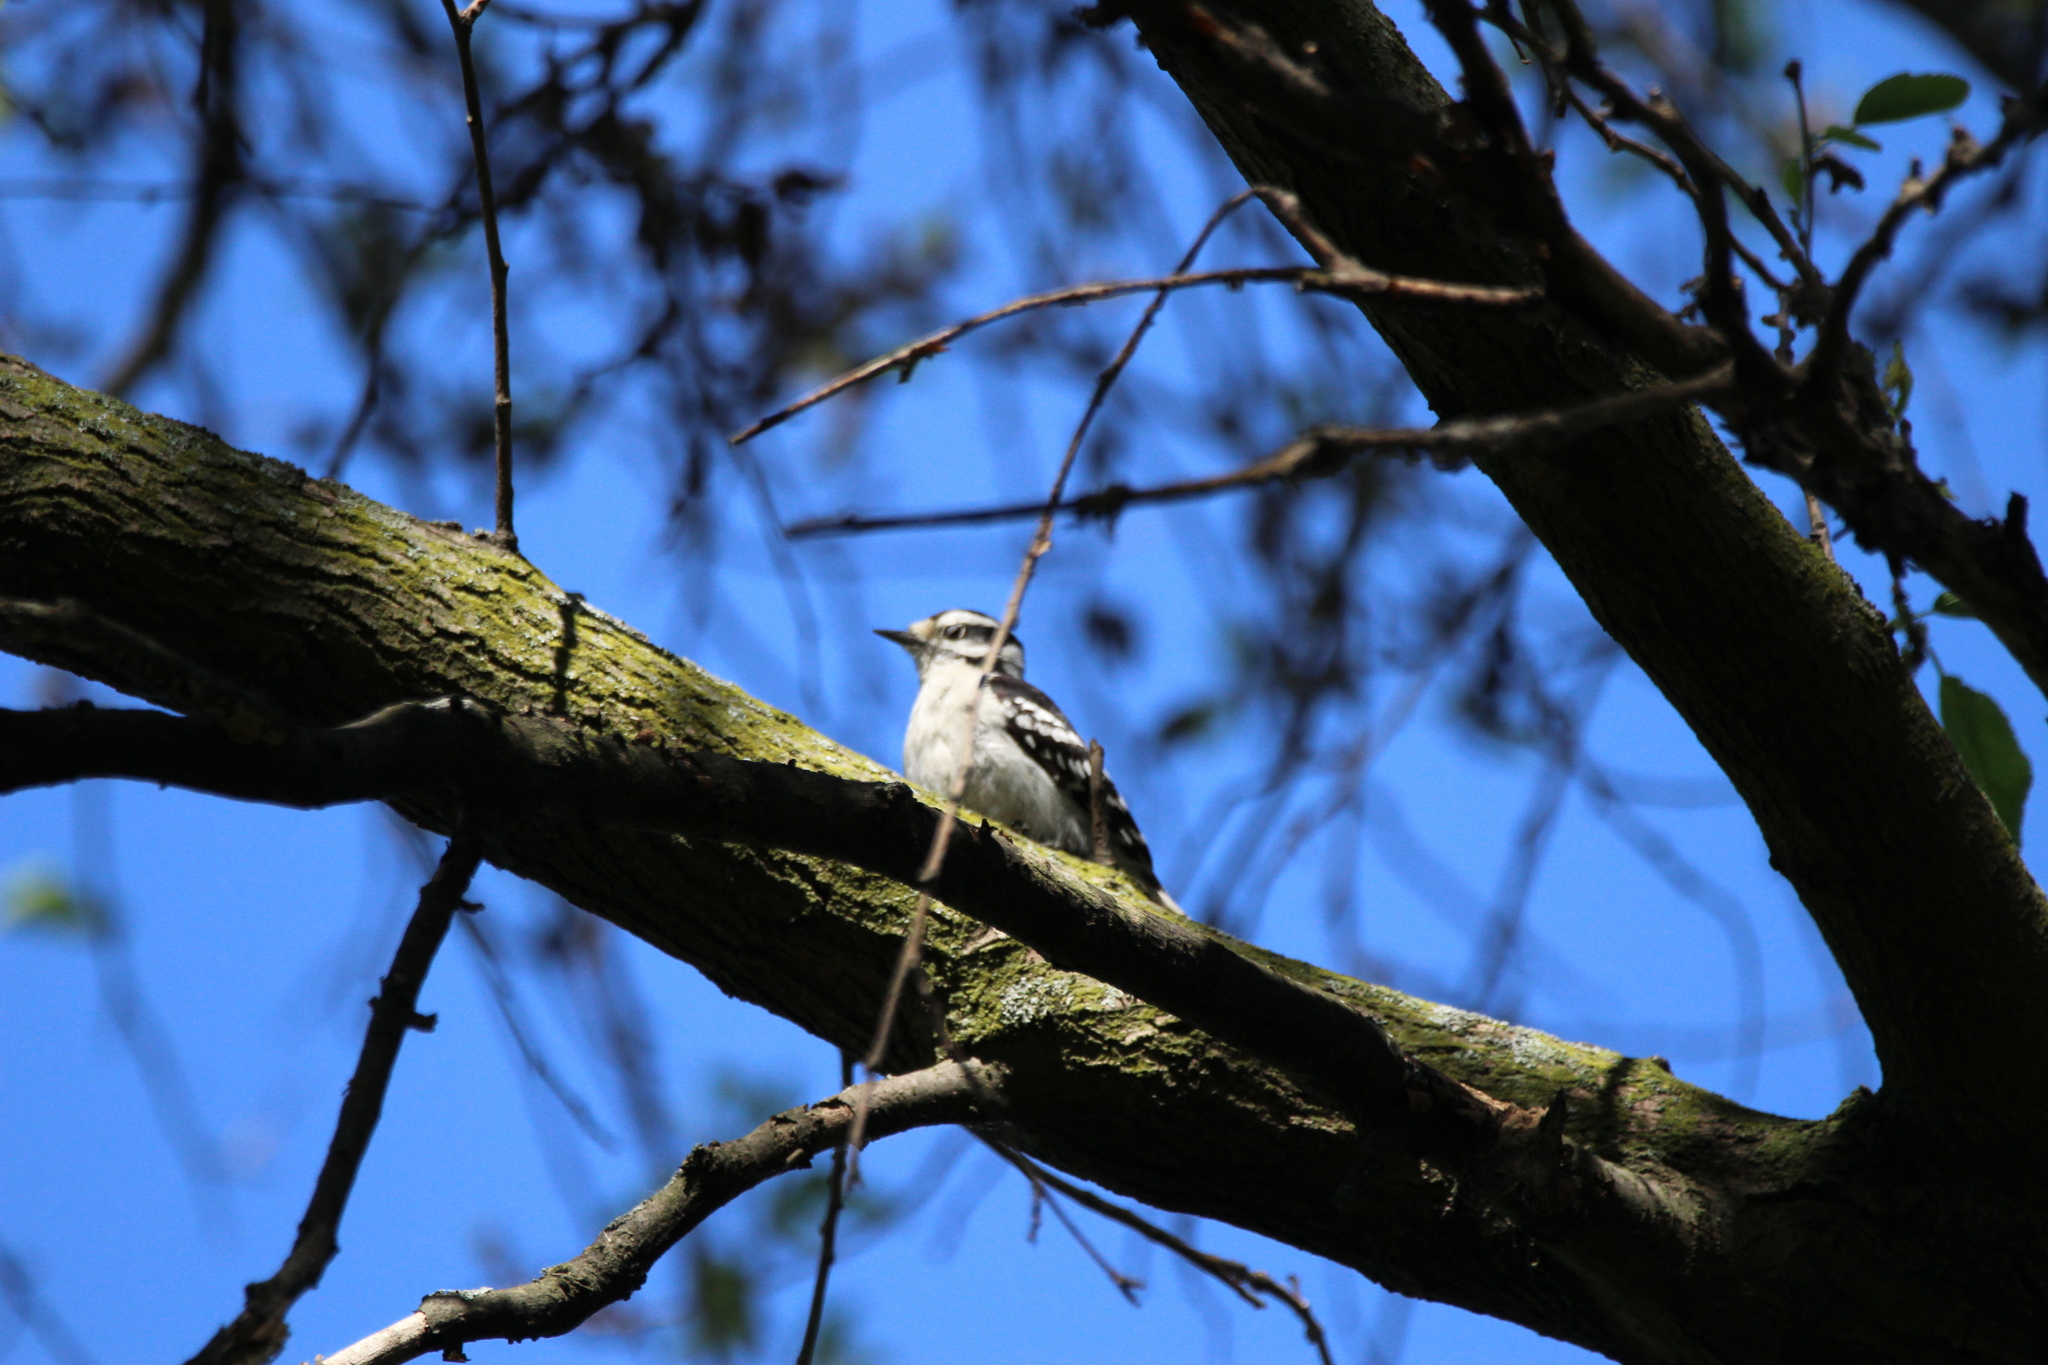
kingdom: Animalia
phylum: Chordata
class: Aves
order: Piciformes
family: Picidae
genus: Dryobates
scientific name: Dryobates pubescens
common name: Downy woodpecker
